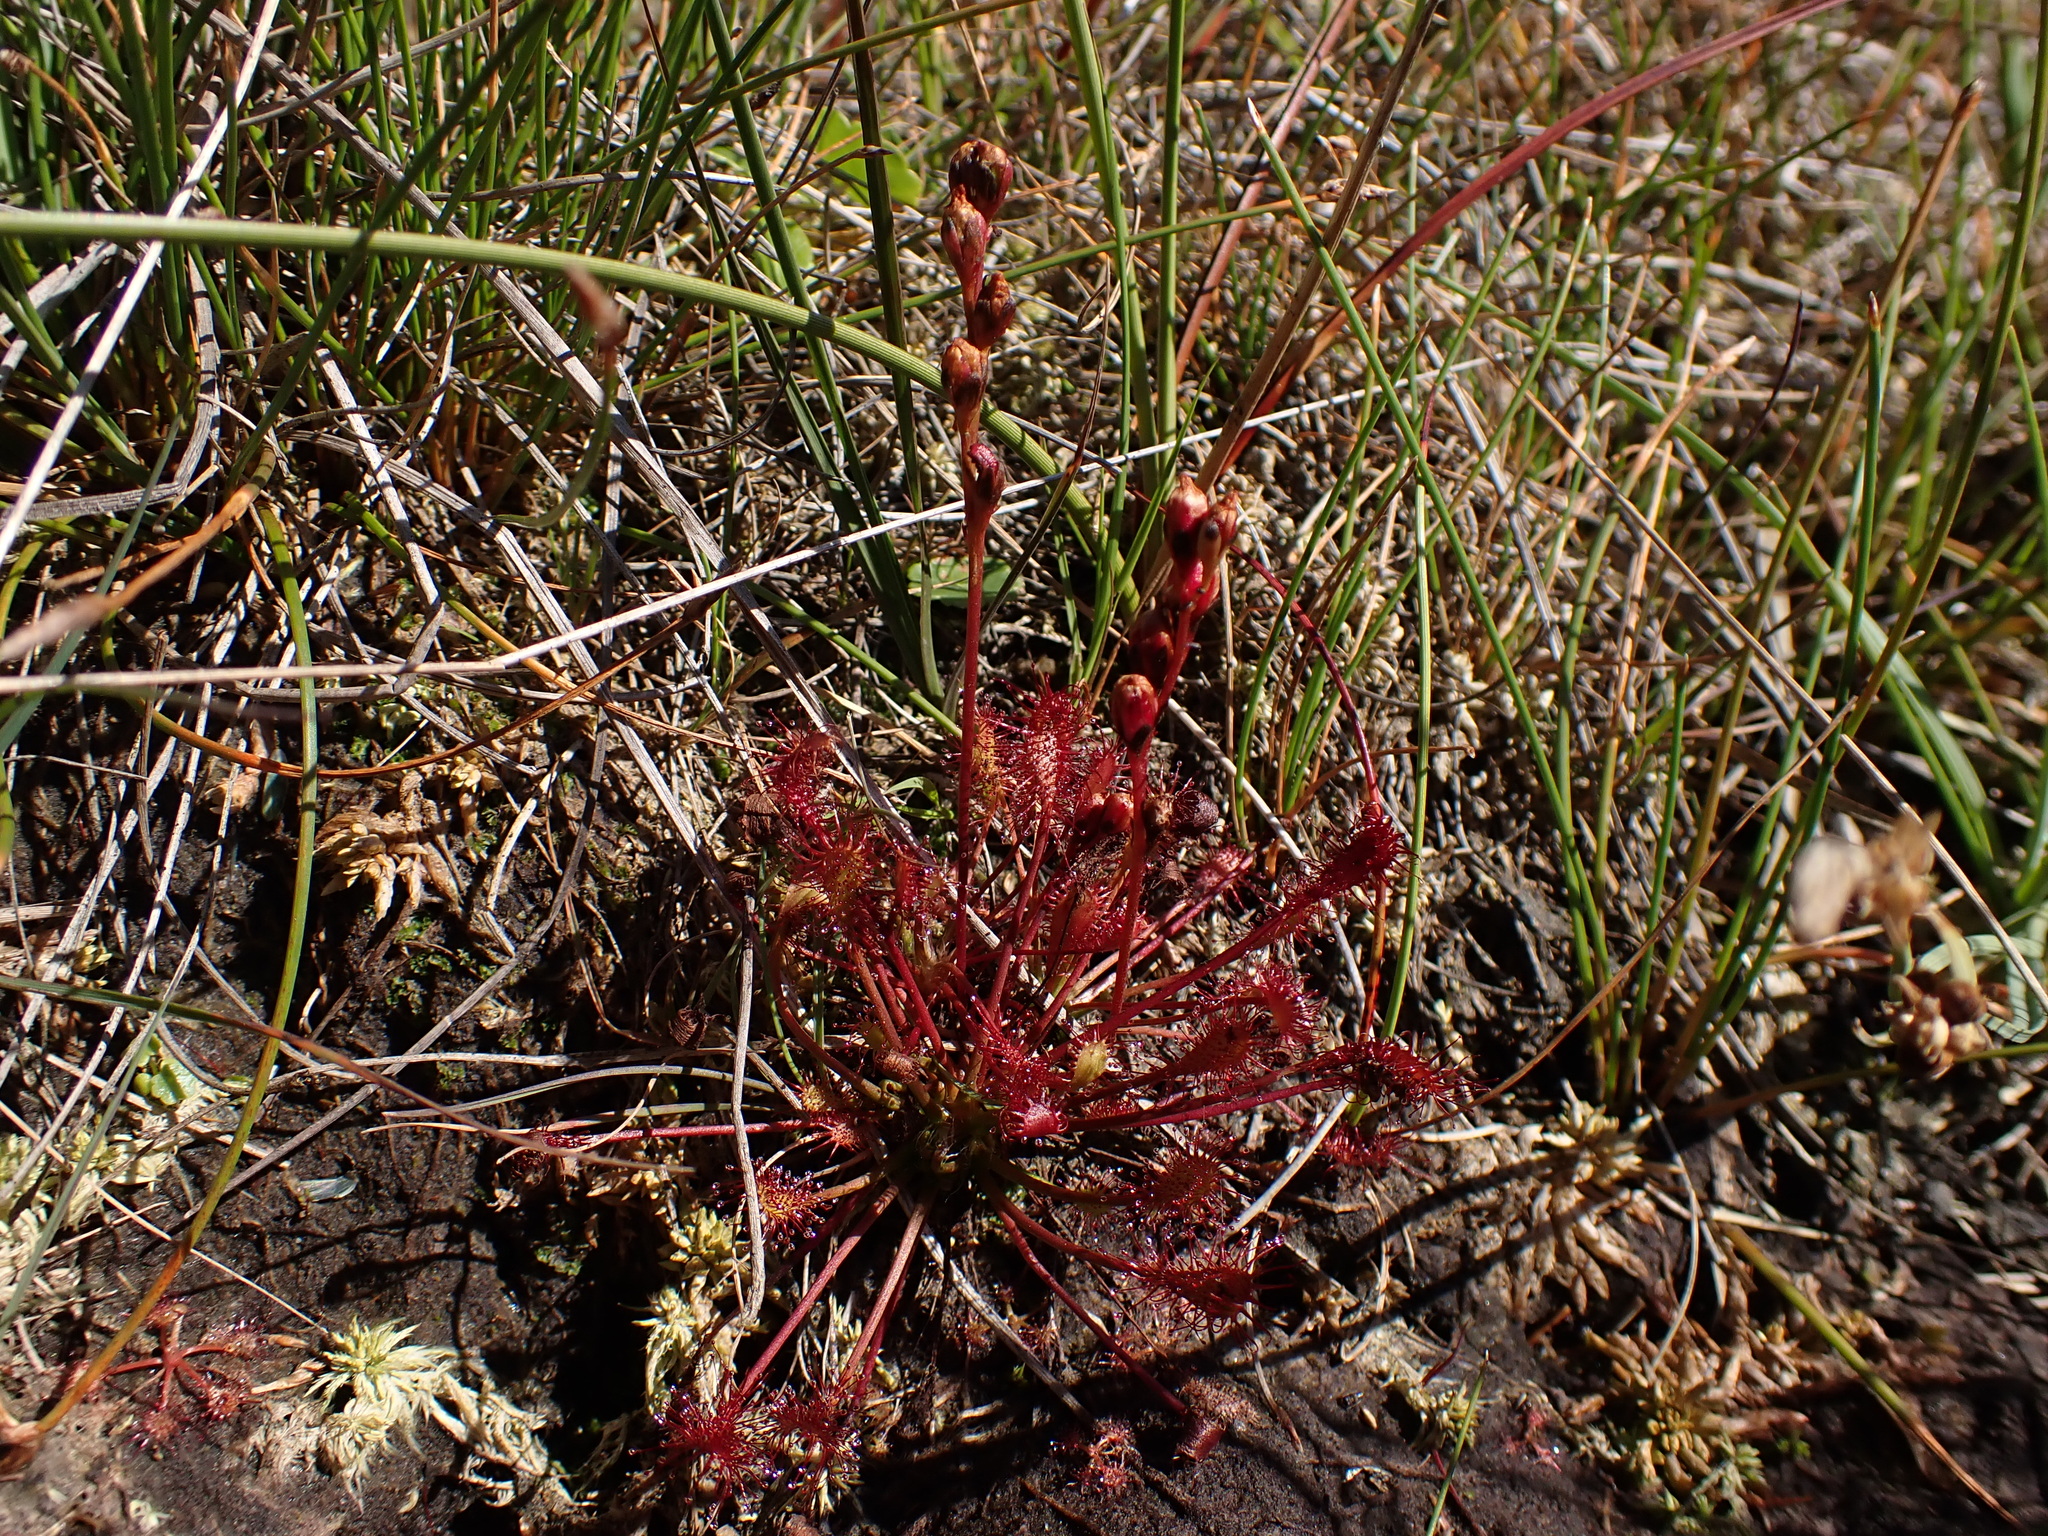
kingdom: Plantae
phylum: Tracheophyta
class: Magnoliopsida
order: Caryophyllales
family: Droseraceae
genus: Drosera
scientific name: Drosera intermedia
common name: Oblong-leaved sundew
